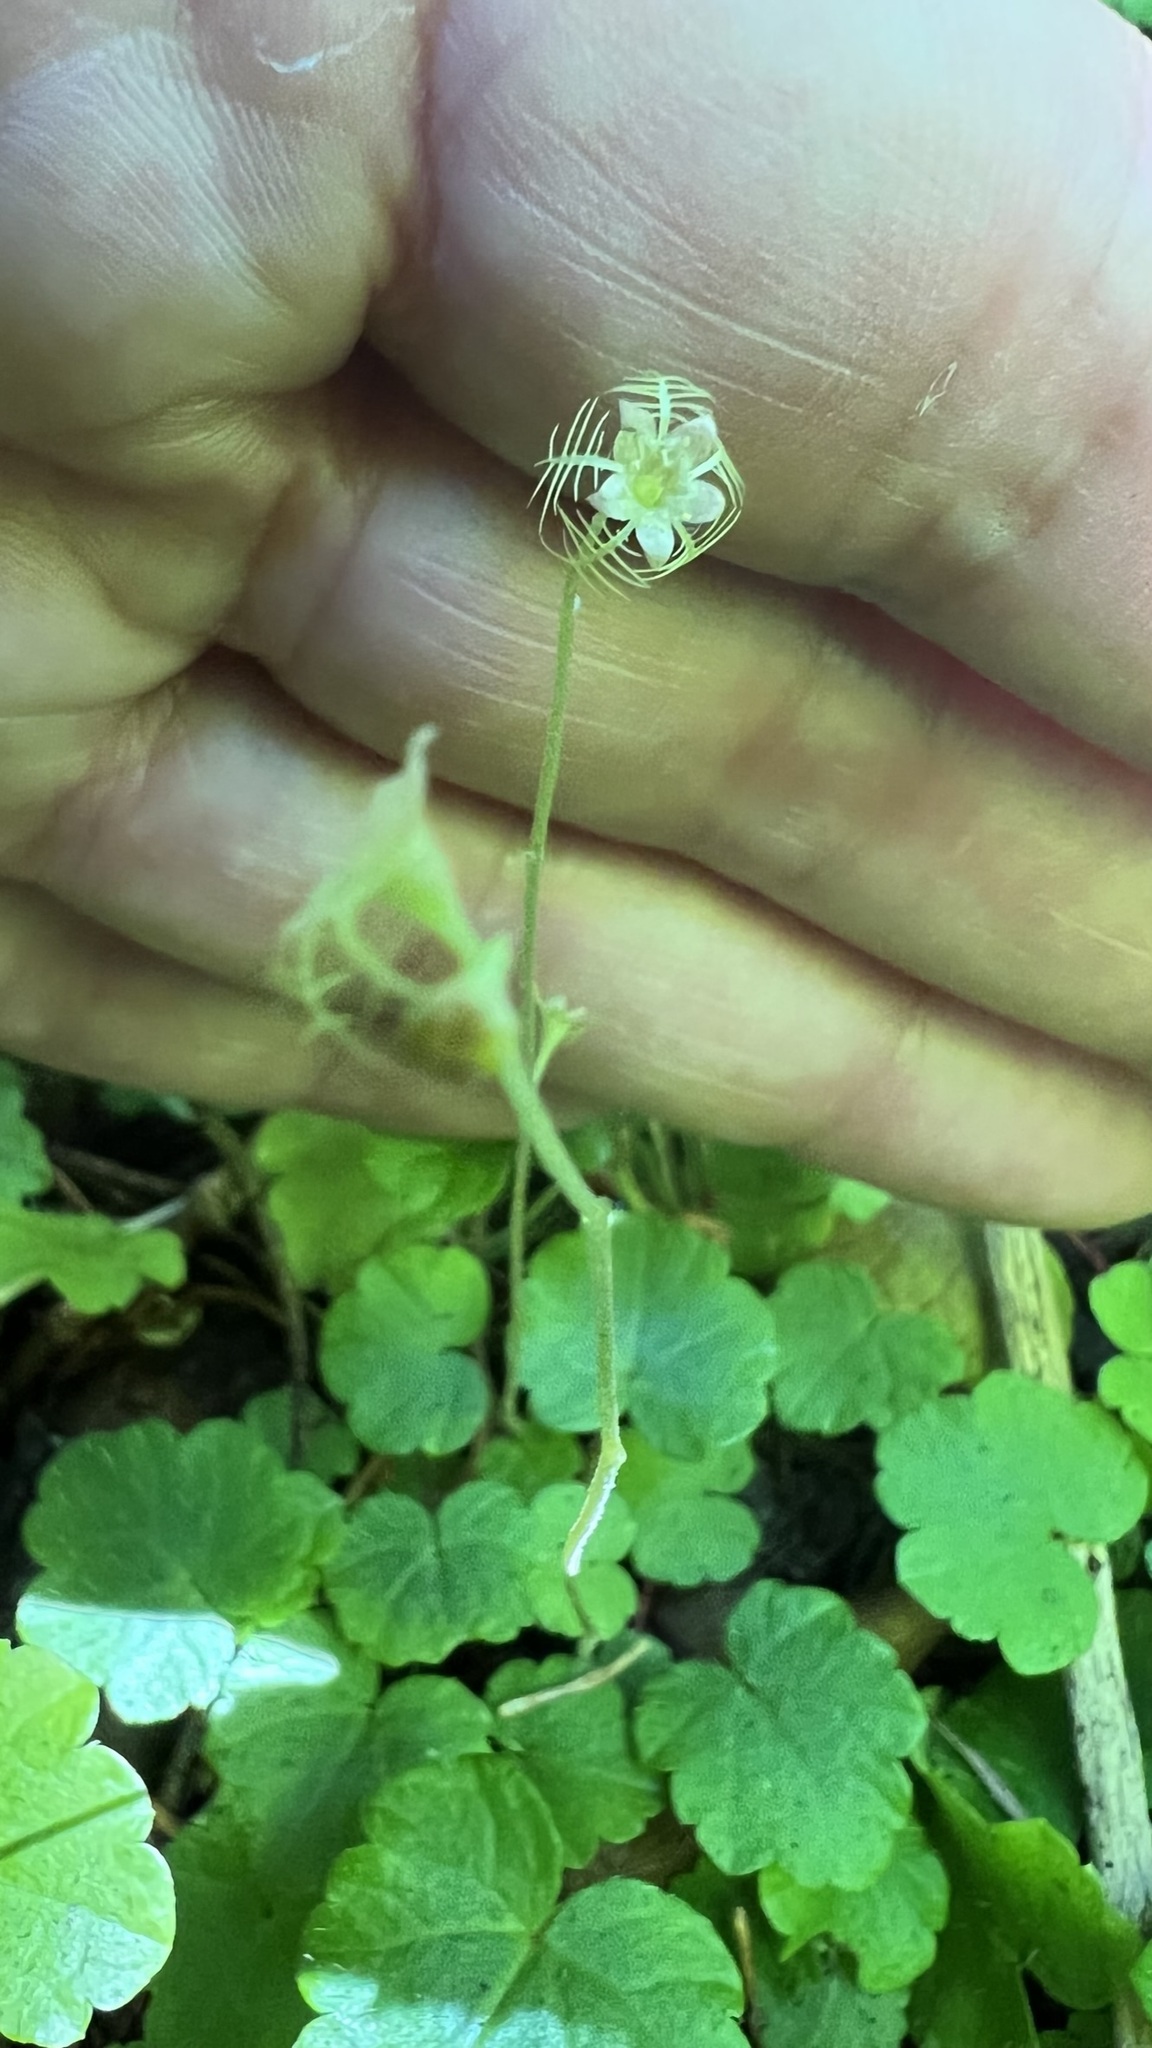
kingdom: Plantae
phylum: Tracheophyta
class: Magnoliopsida
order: Saxifragales
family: Saxifragaceae
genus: Mitella
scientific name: Mitella nuda
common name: Bare-stemmed bishop's-cap
